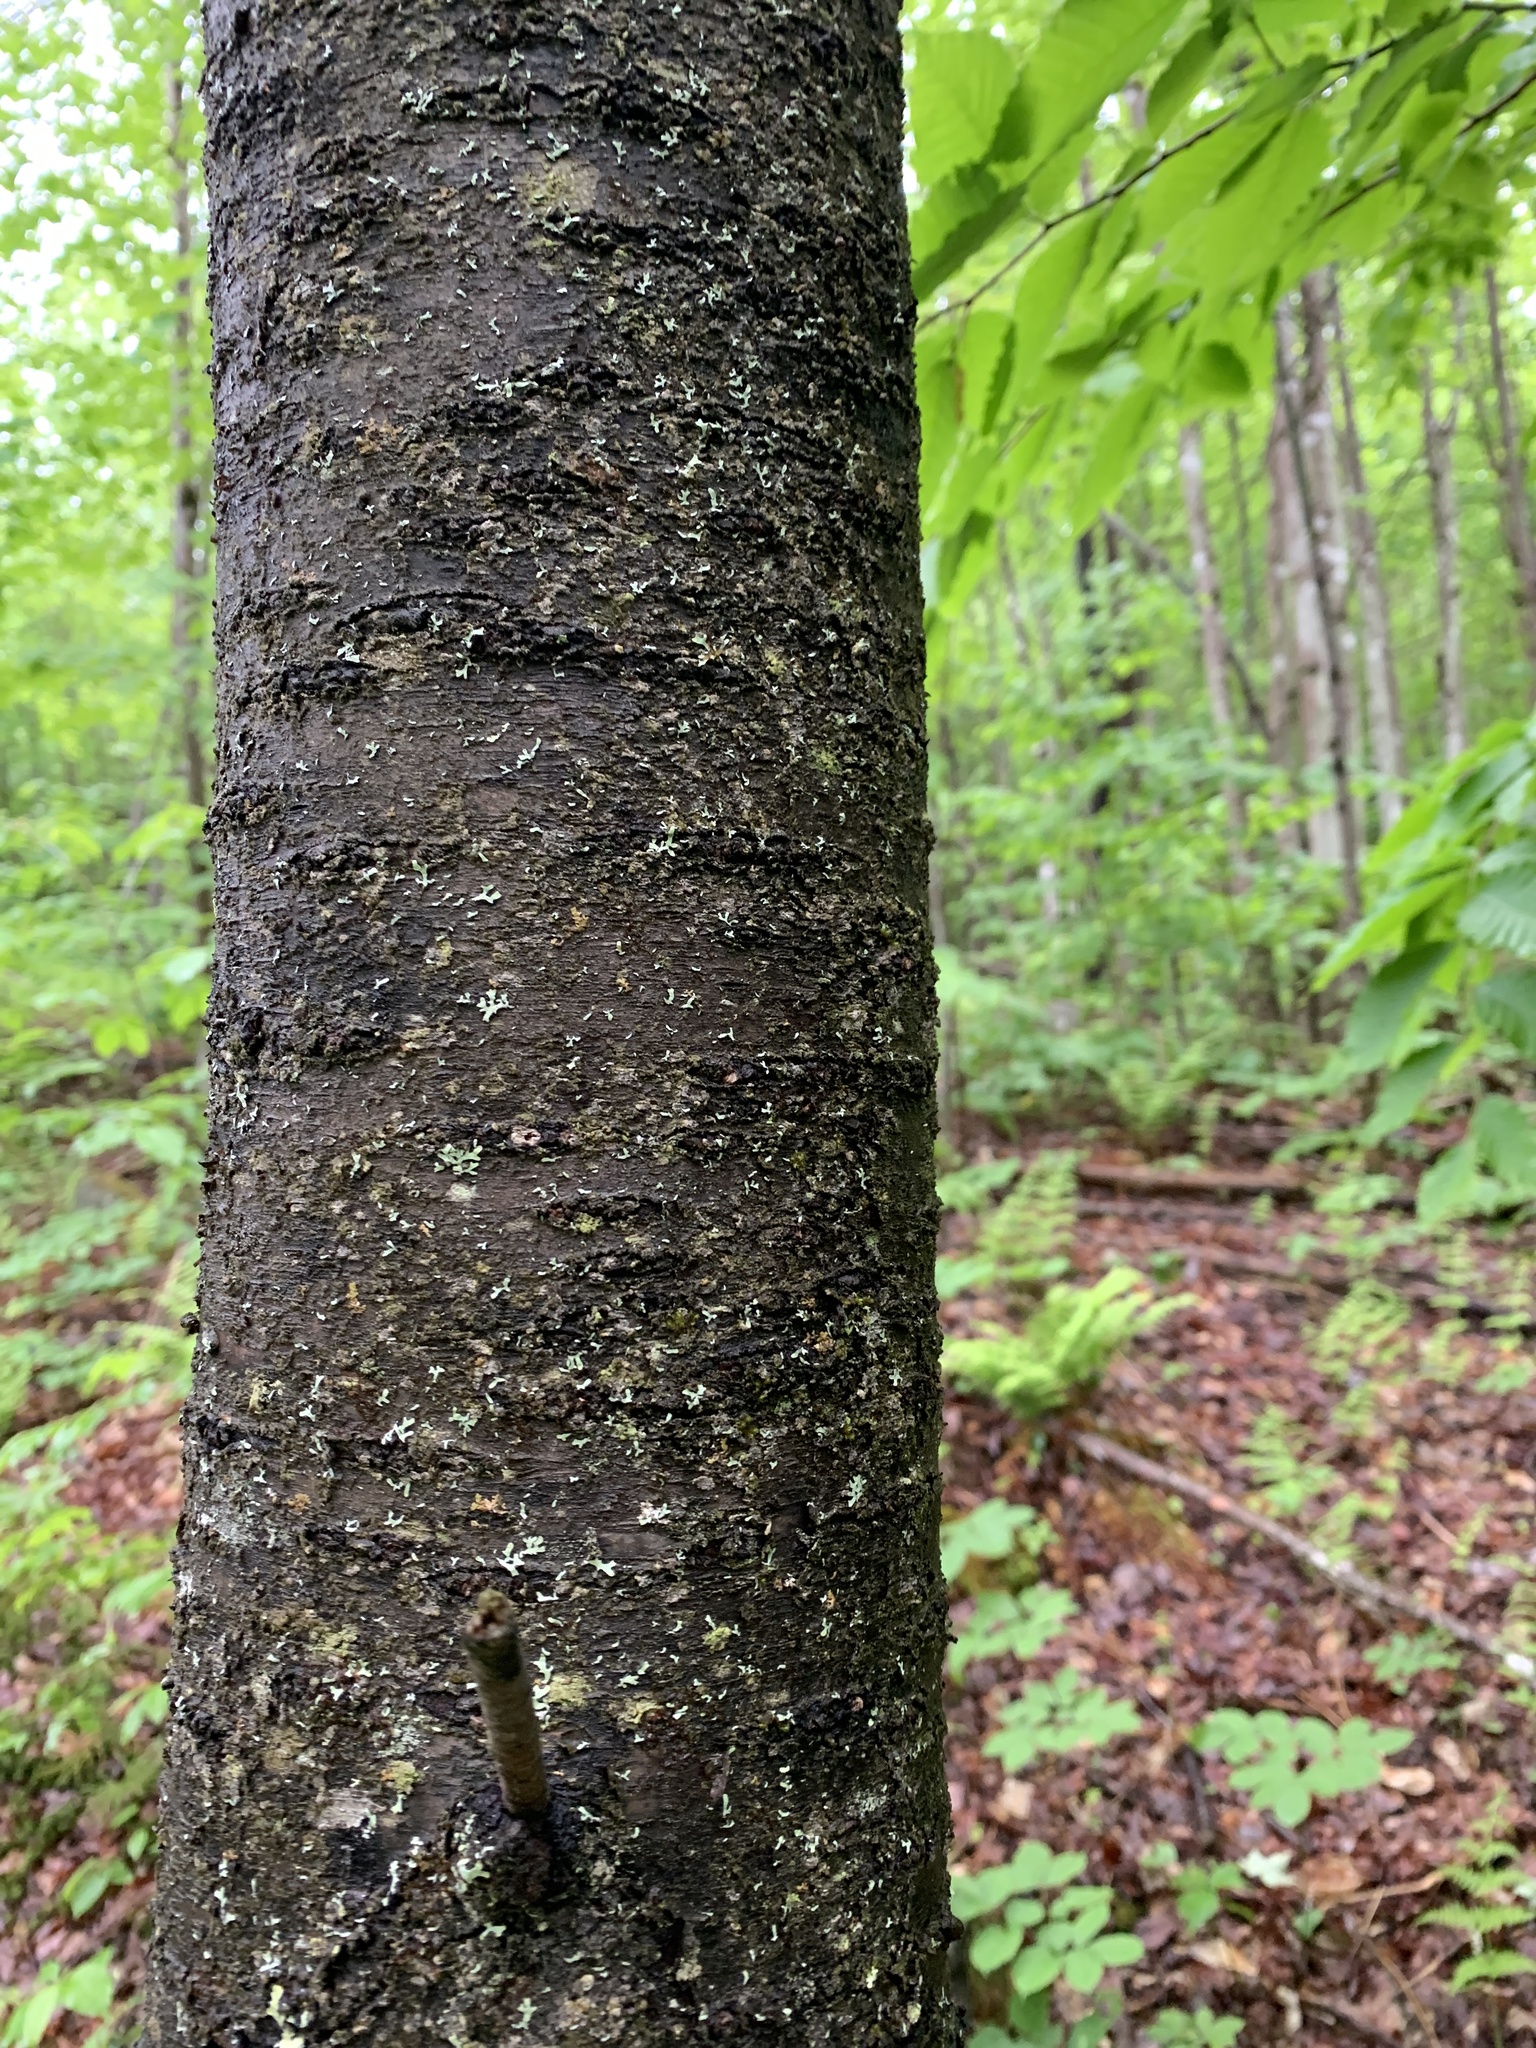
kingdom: Plantae
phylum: Tracheophyta
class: Magnoliopsida
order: Rosales
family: Rosaceae
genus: Prunus
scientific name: Prunus pensylvanica
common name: Pin cherry
